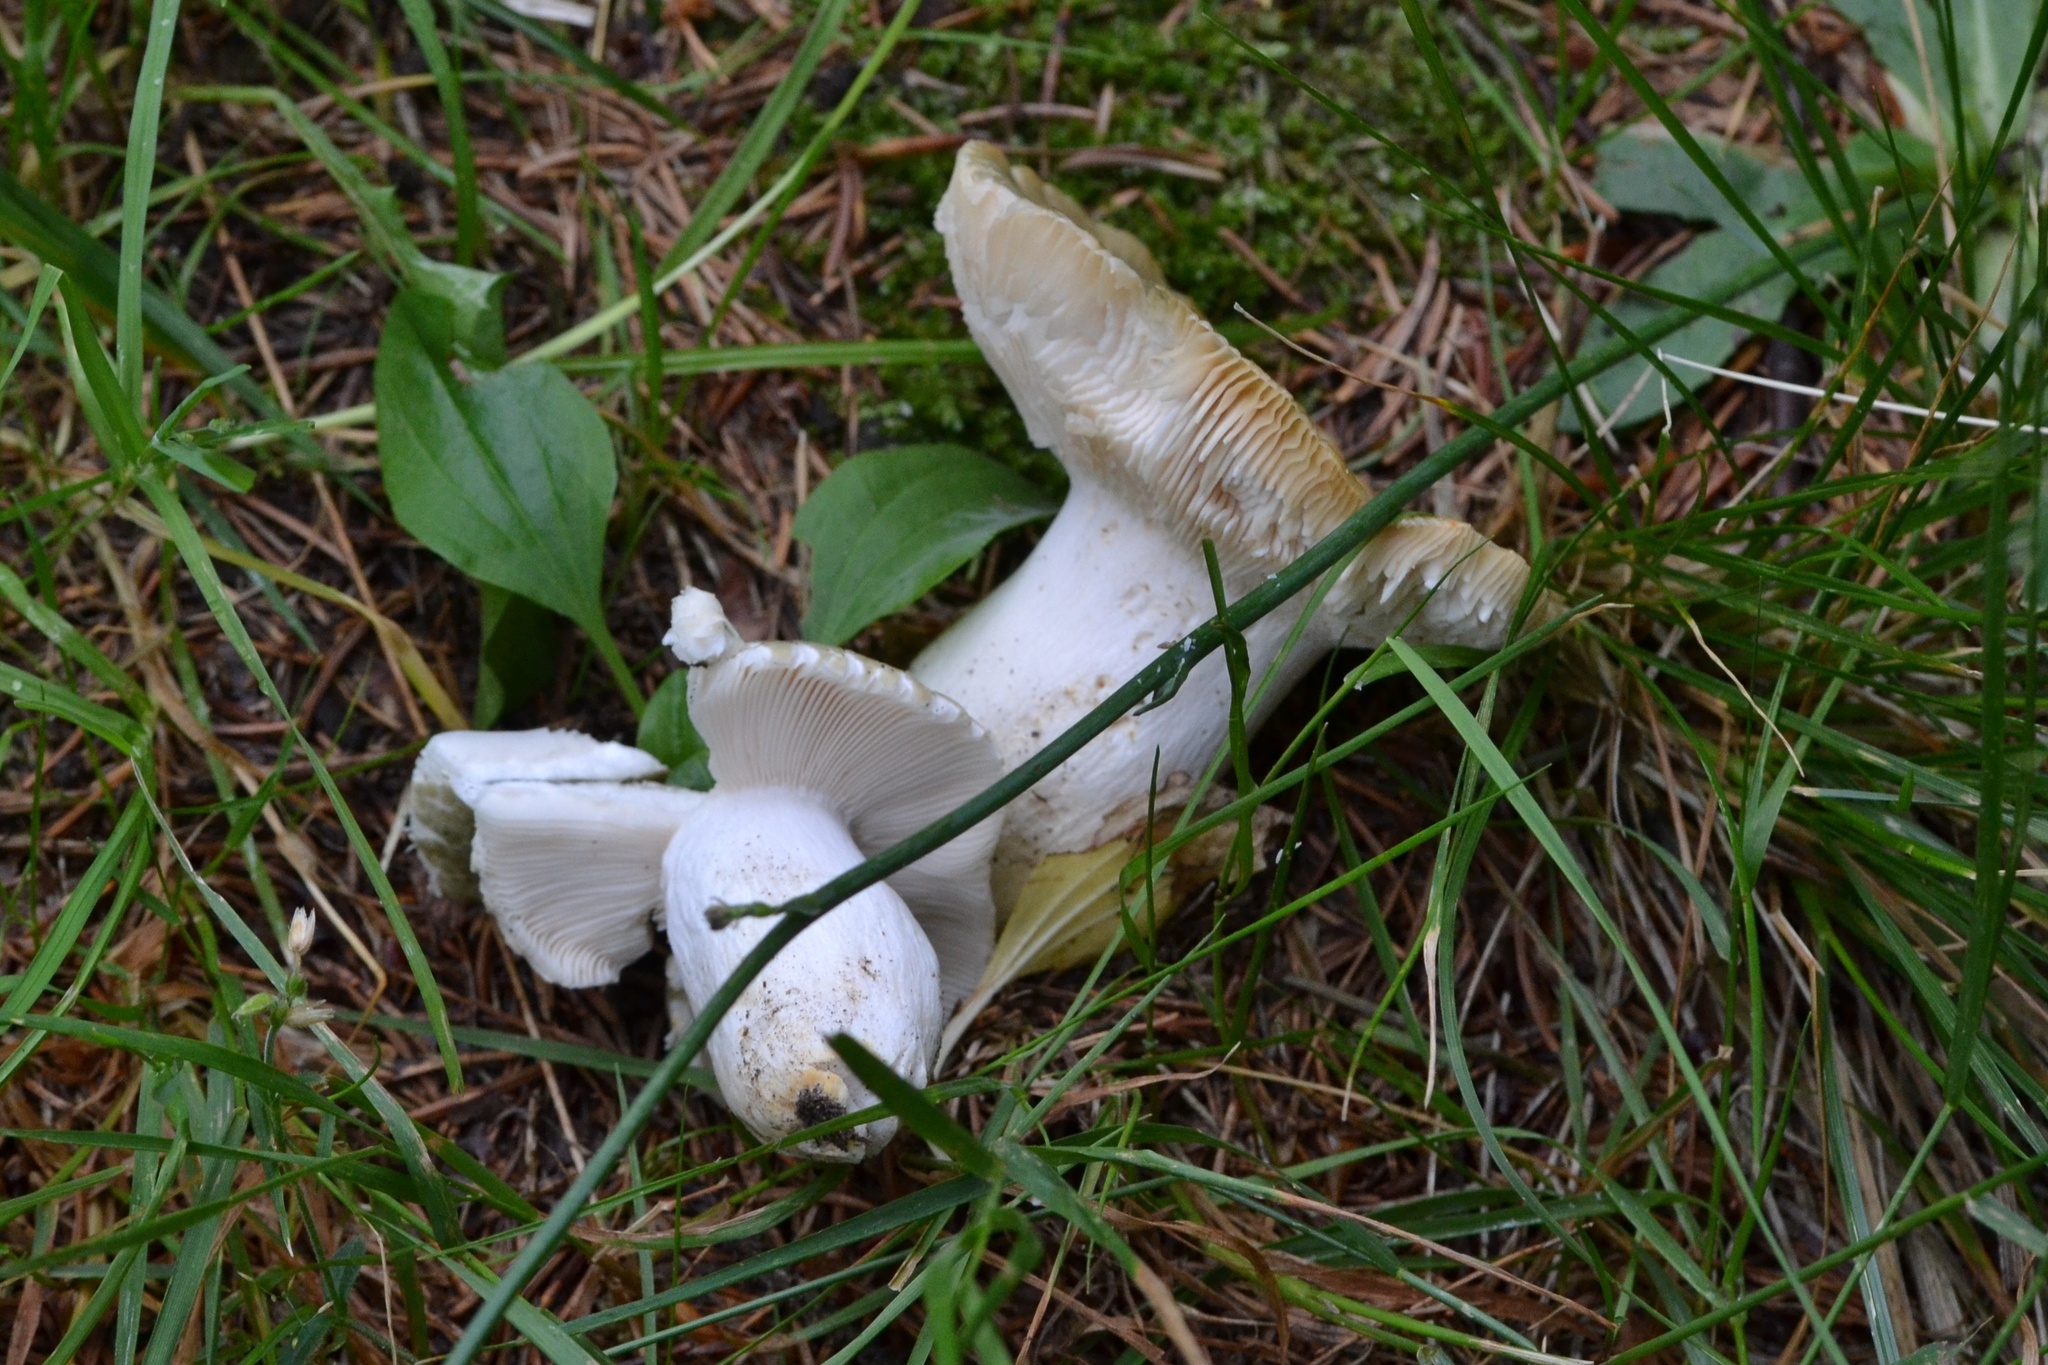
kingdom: Fungi
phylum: Basidiomycota
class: Agaricomycetes
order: Russulales
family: Russulaceae
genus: Russula
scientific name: Russula virescens
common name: Greencracked brittlegill
